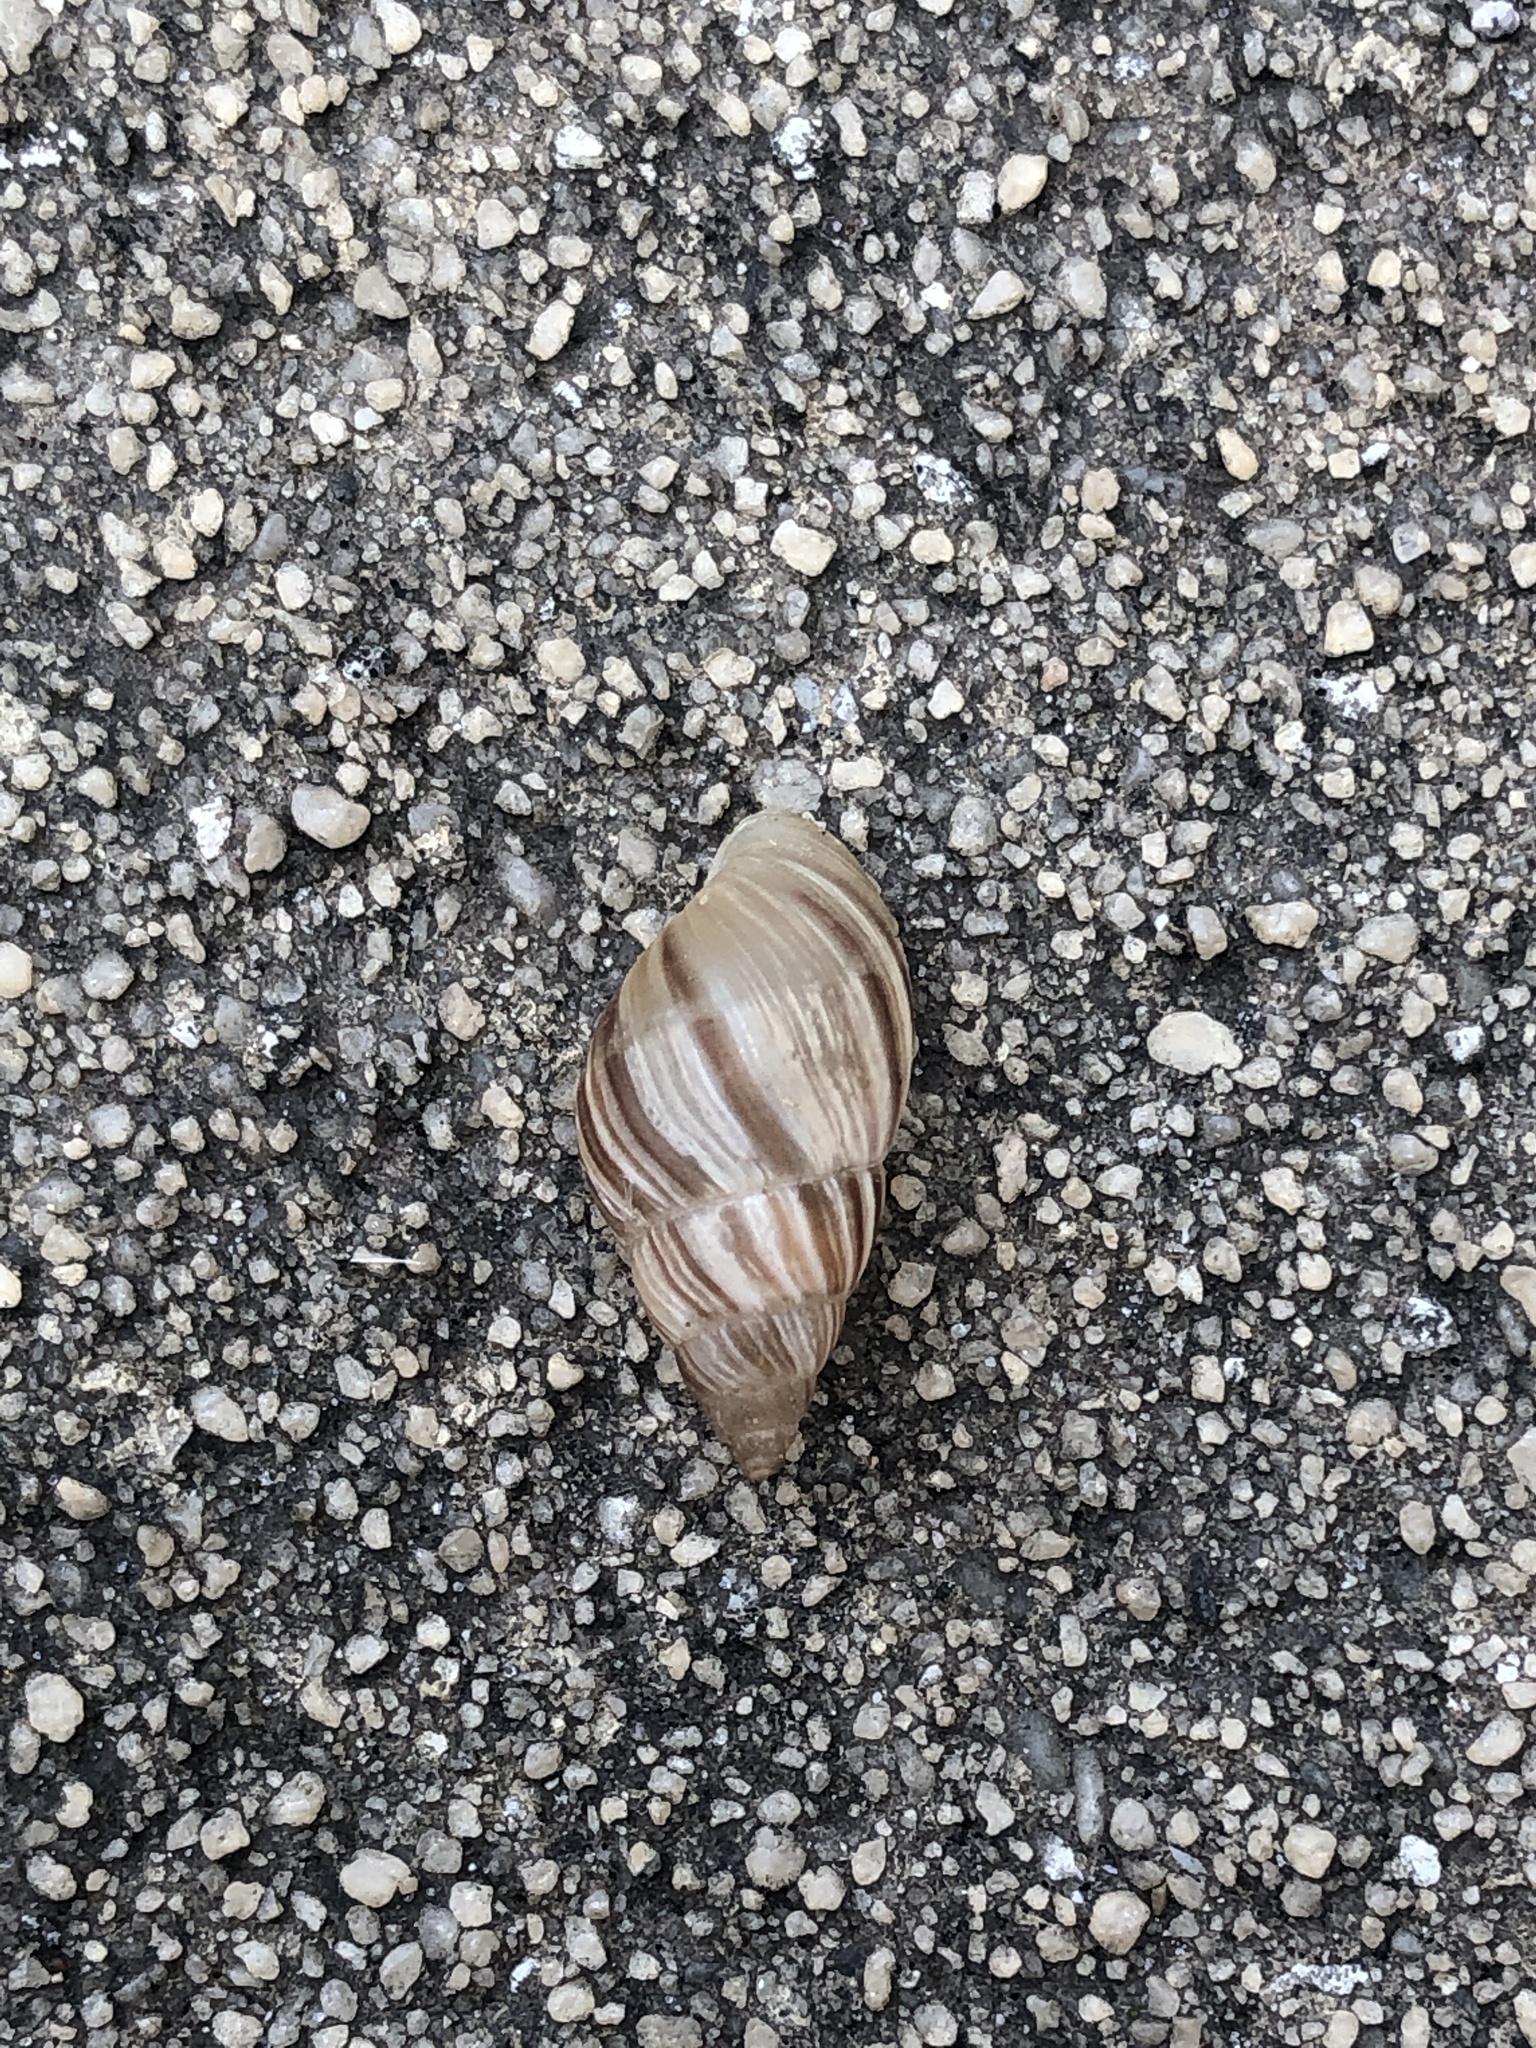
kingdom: Animalia
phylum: Mollusca
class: Gastropoda
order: Stylommatophora
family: Bulimulidae
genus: Bulimulus
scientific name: Bulimulus bonariensis
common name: Snail
